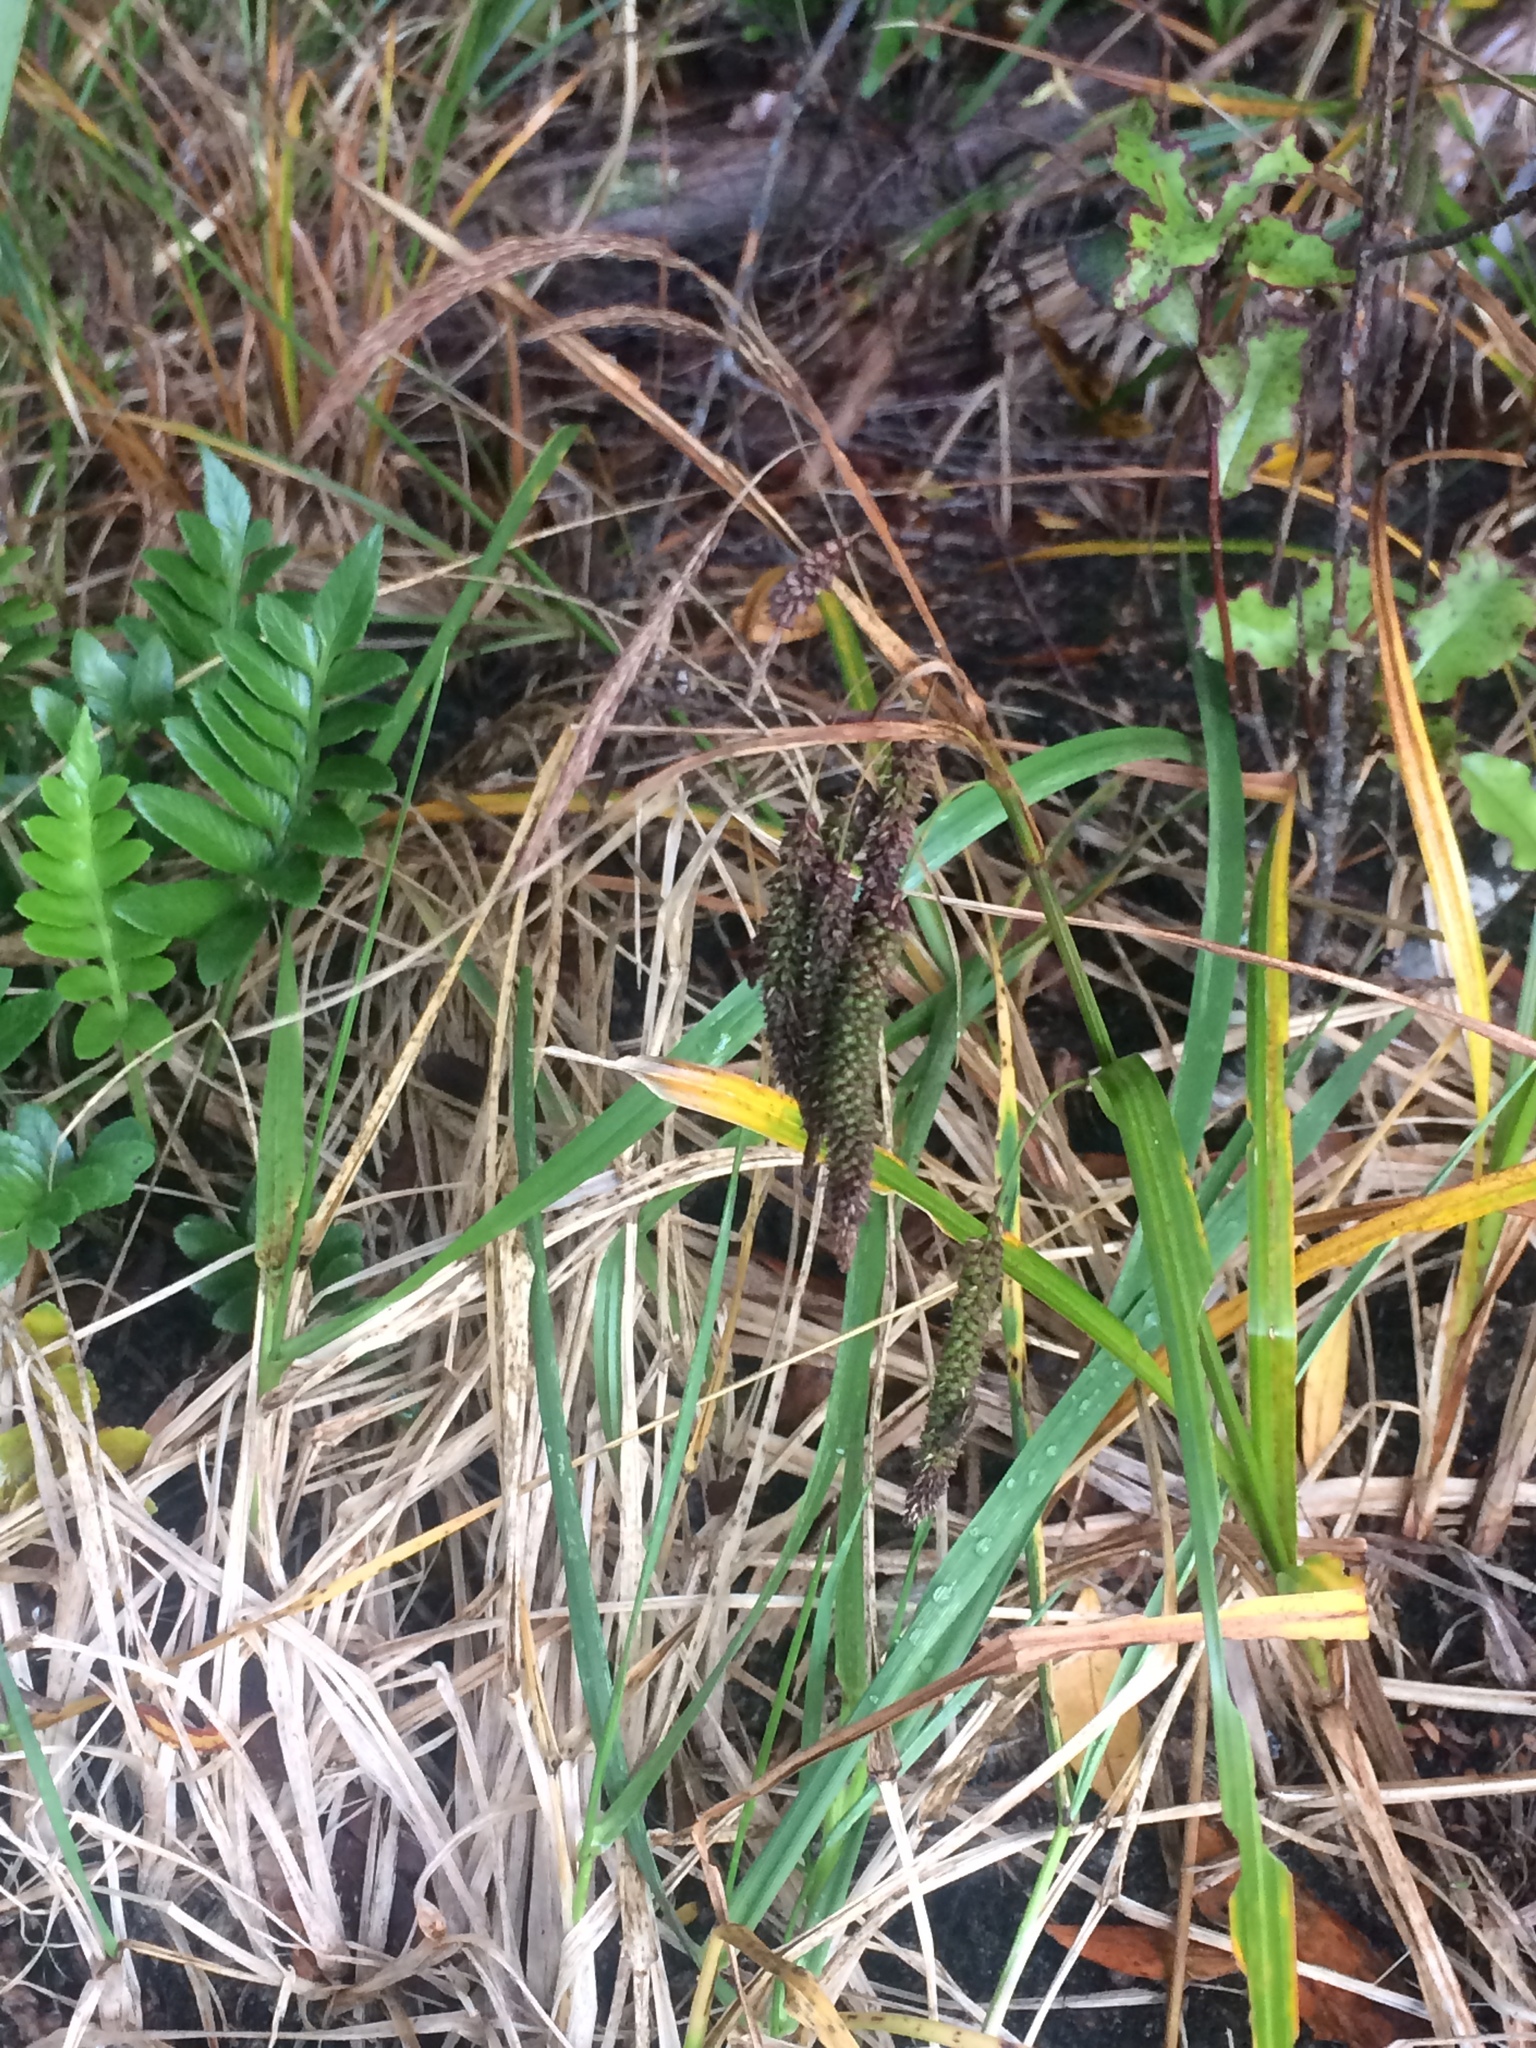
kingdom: Plantae
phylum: Tracheophyta
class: Liliopsida
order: Poales
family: Cyperaceae
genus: Carex
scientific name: Carex geminata
